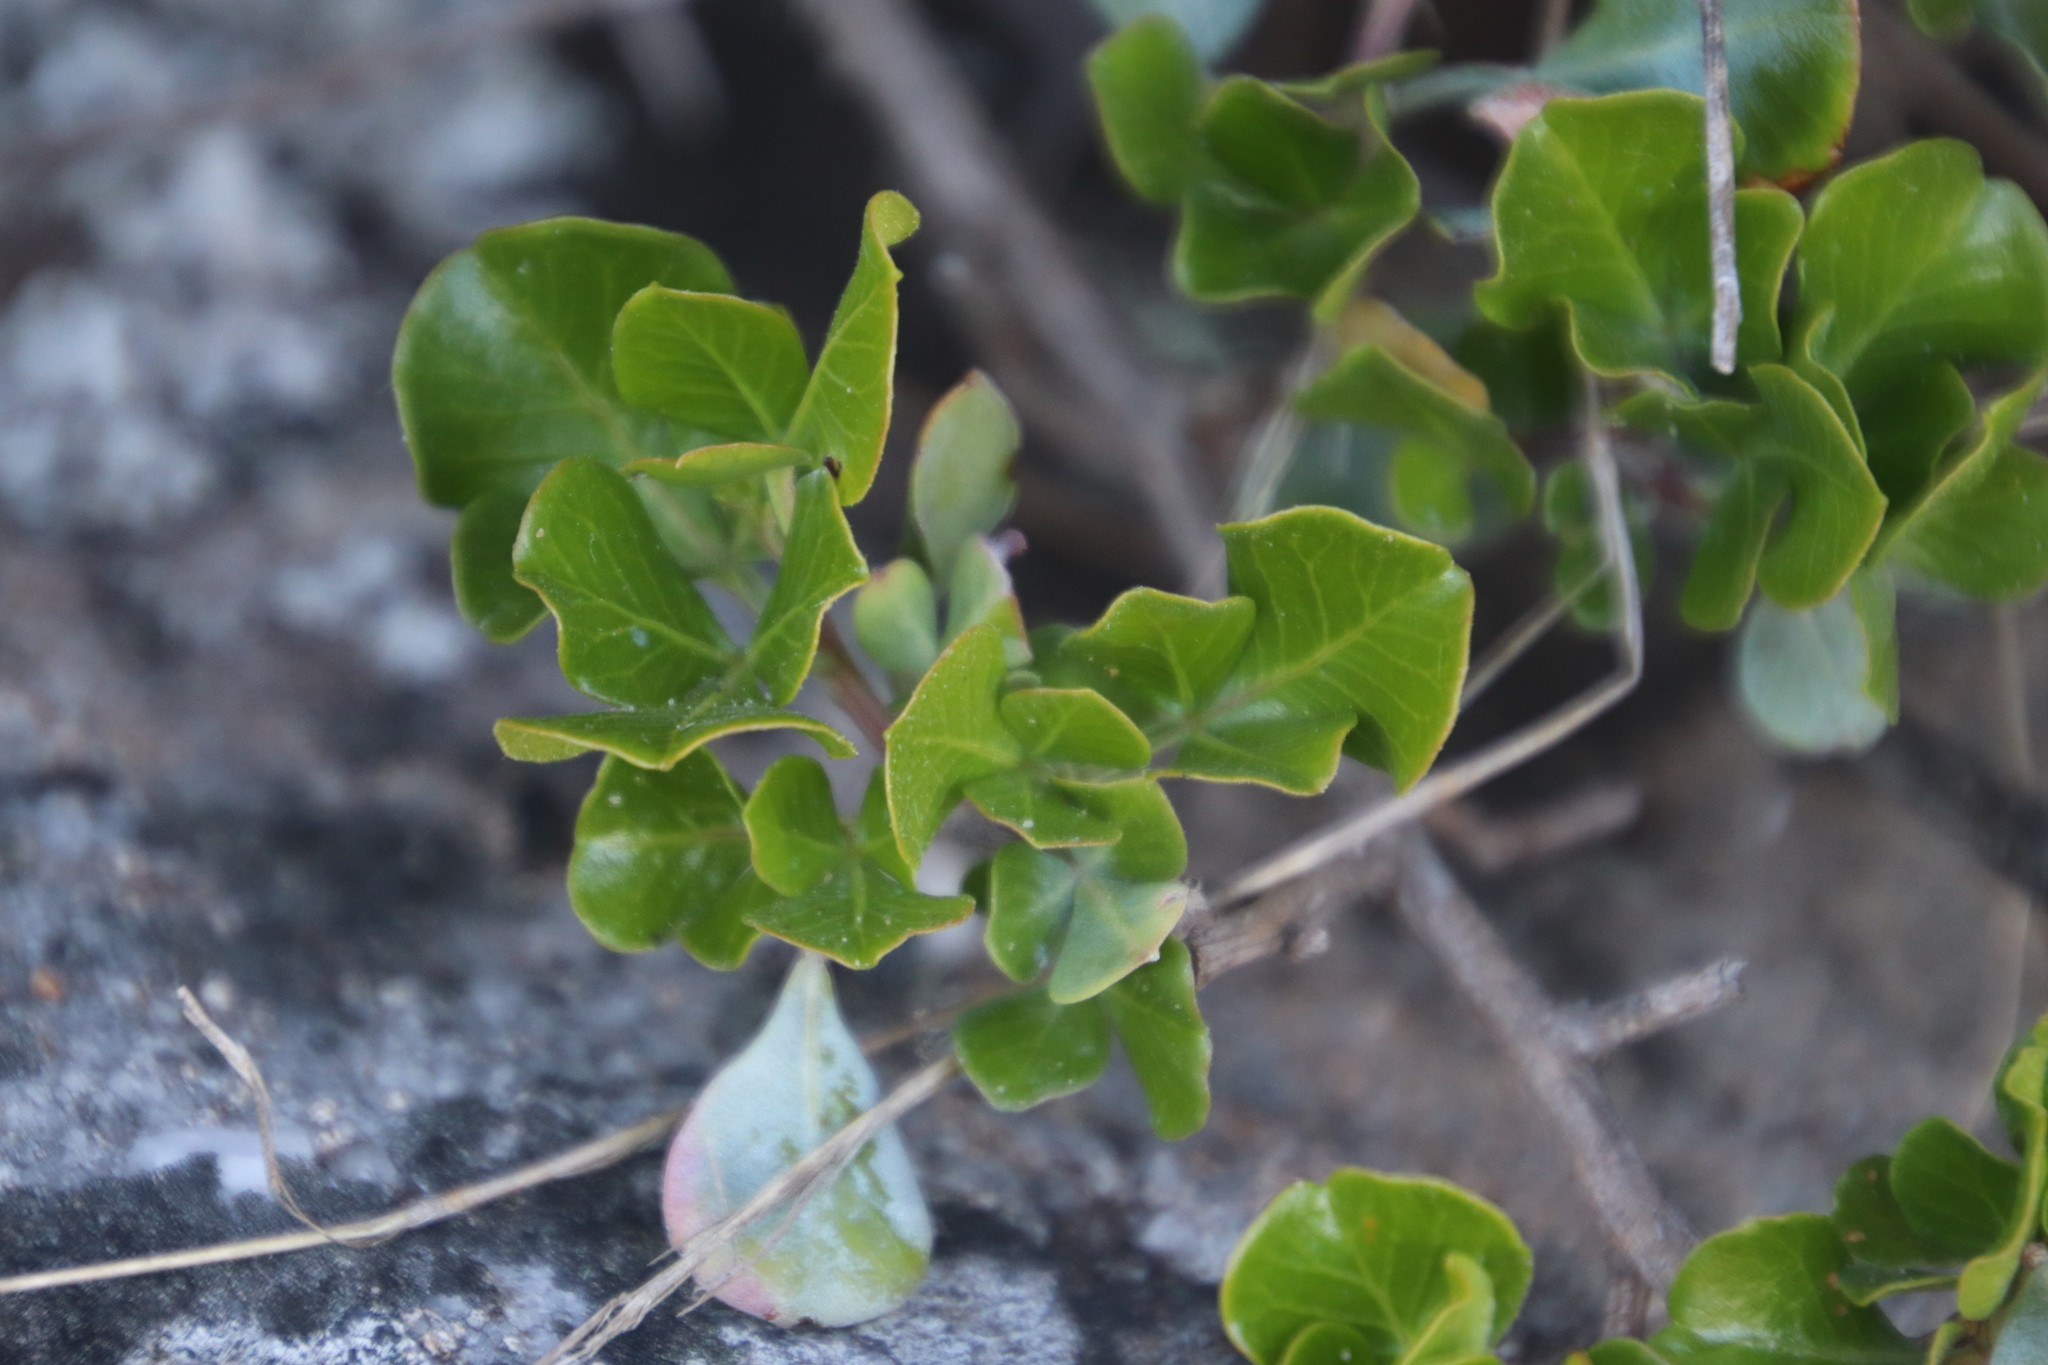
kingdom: Plantae
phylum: Tracheophyta
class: Magnoliopsida
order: Sapindales
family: Anacardiaceae
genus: Searsia
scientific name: Searsia glauca
